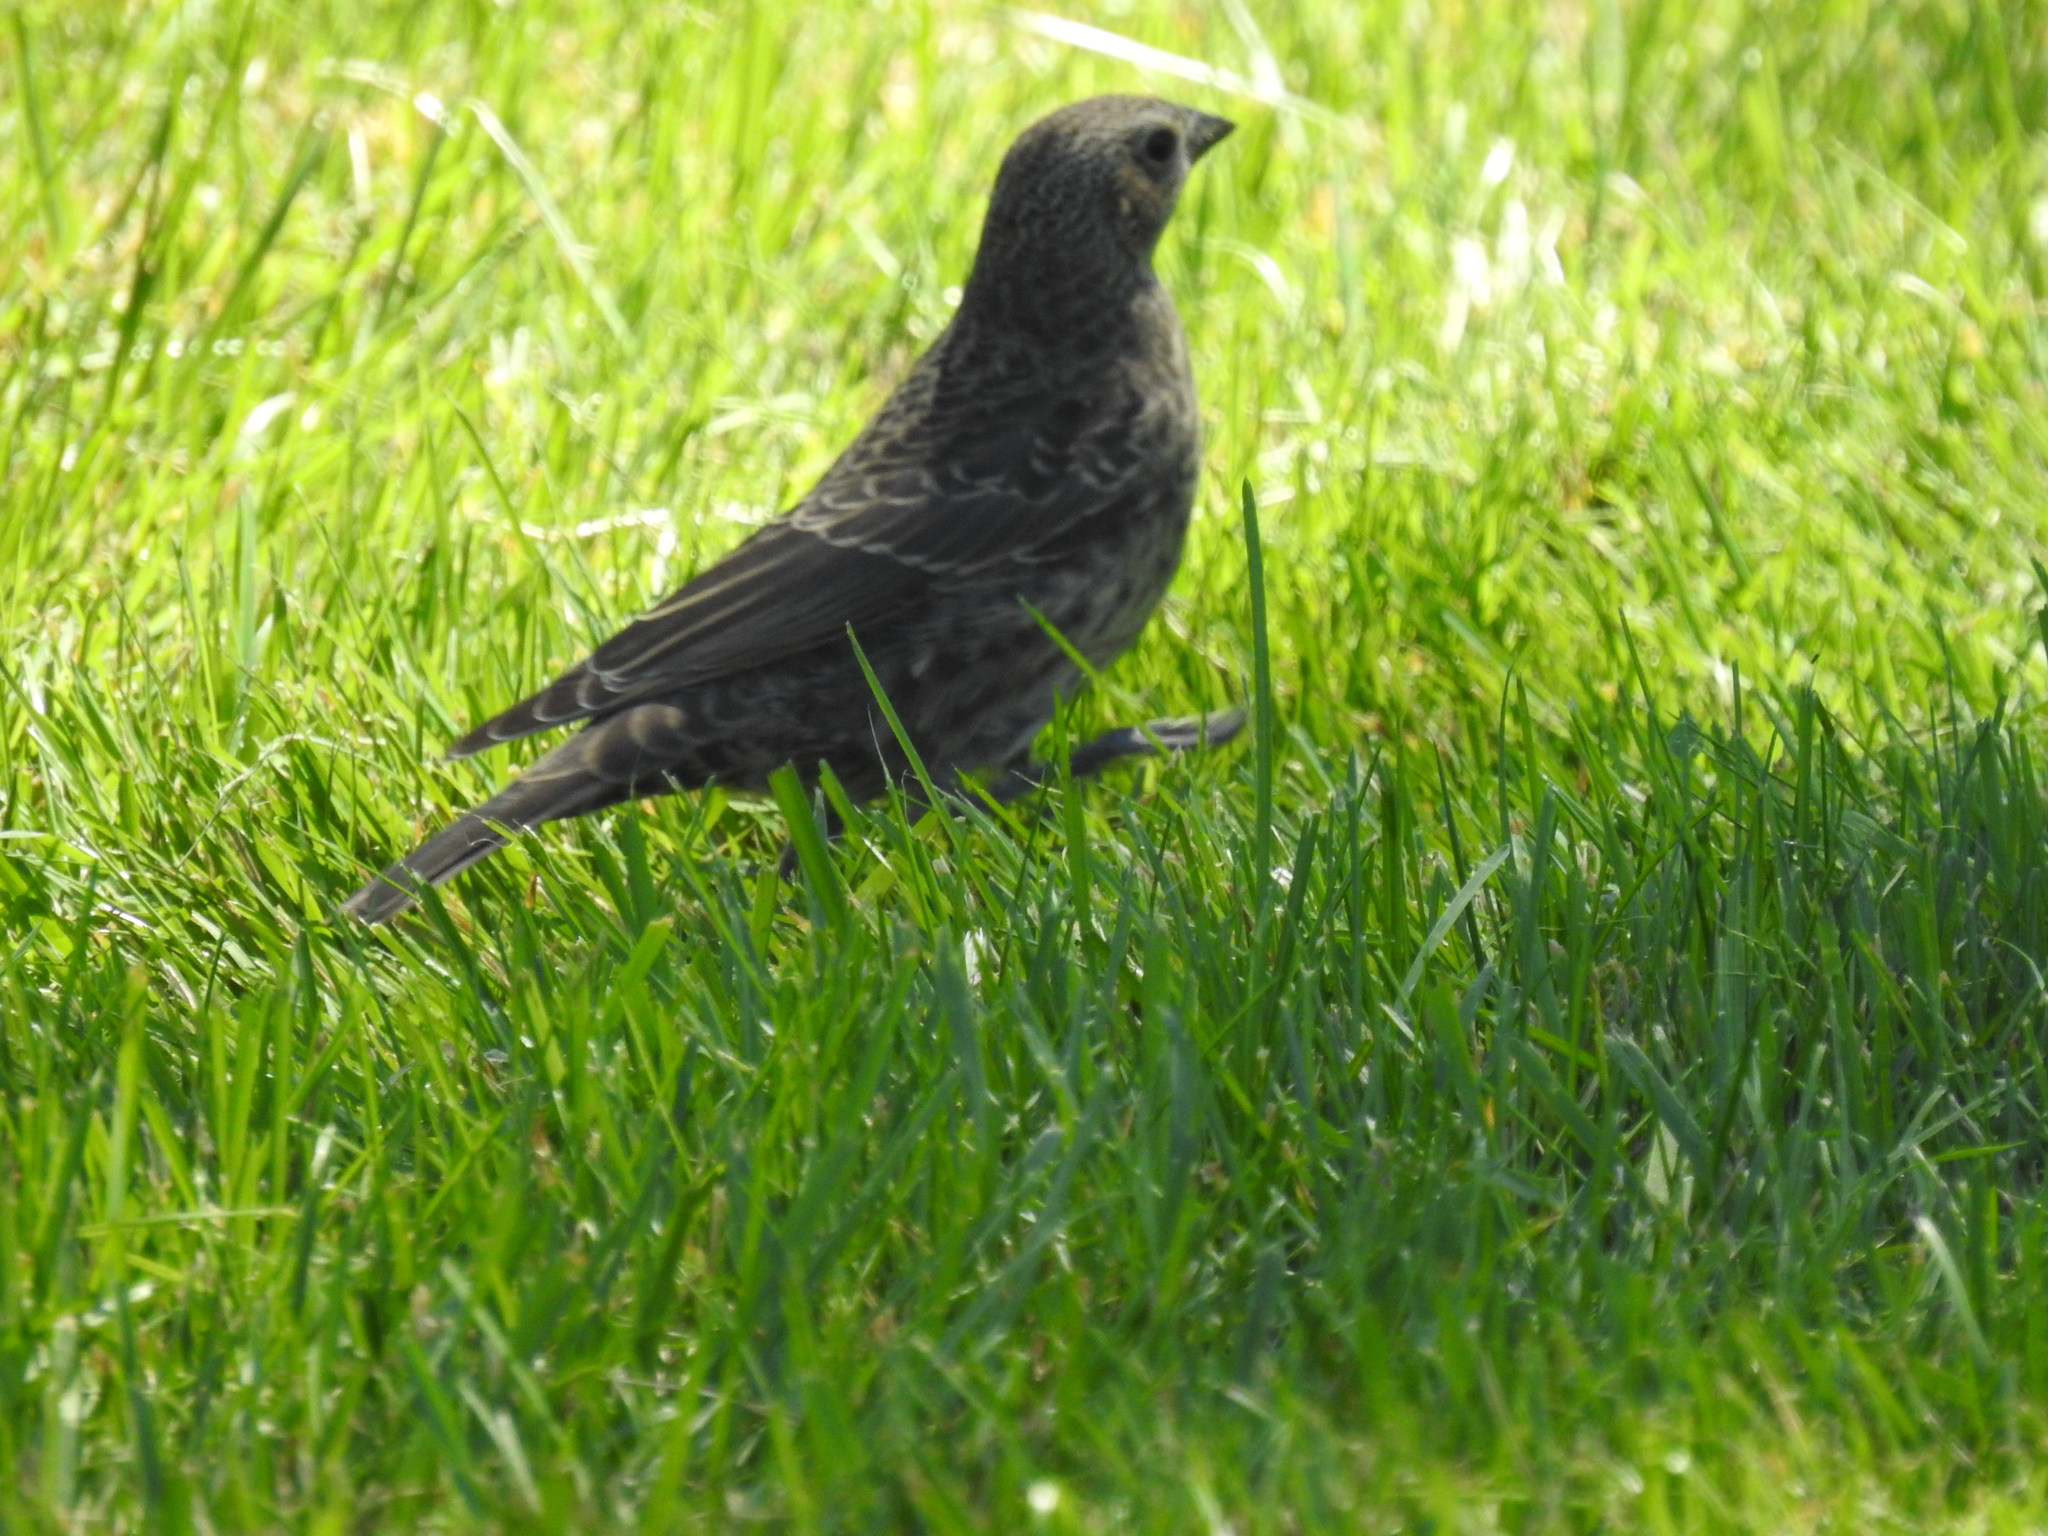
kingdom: Animalia
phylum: Chordata
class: Aves
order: Passeriformes
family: Icteridae
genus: Molothrus
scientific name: Molothrus ater
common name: Brown-headed cowbird
